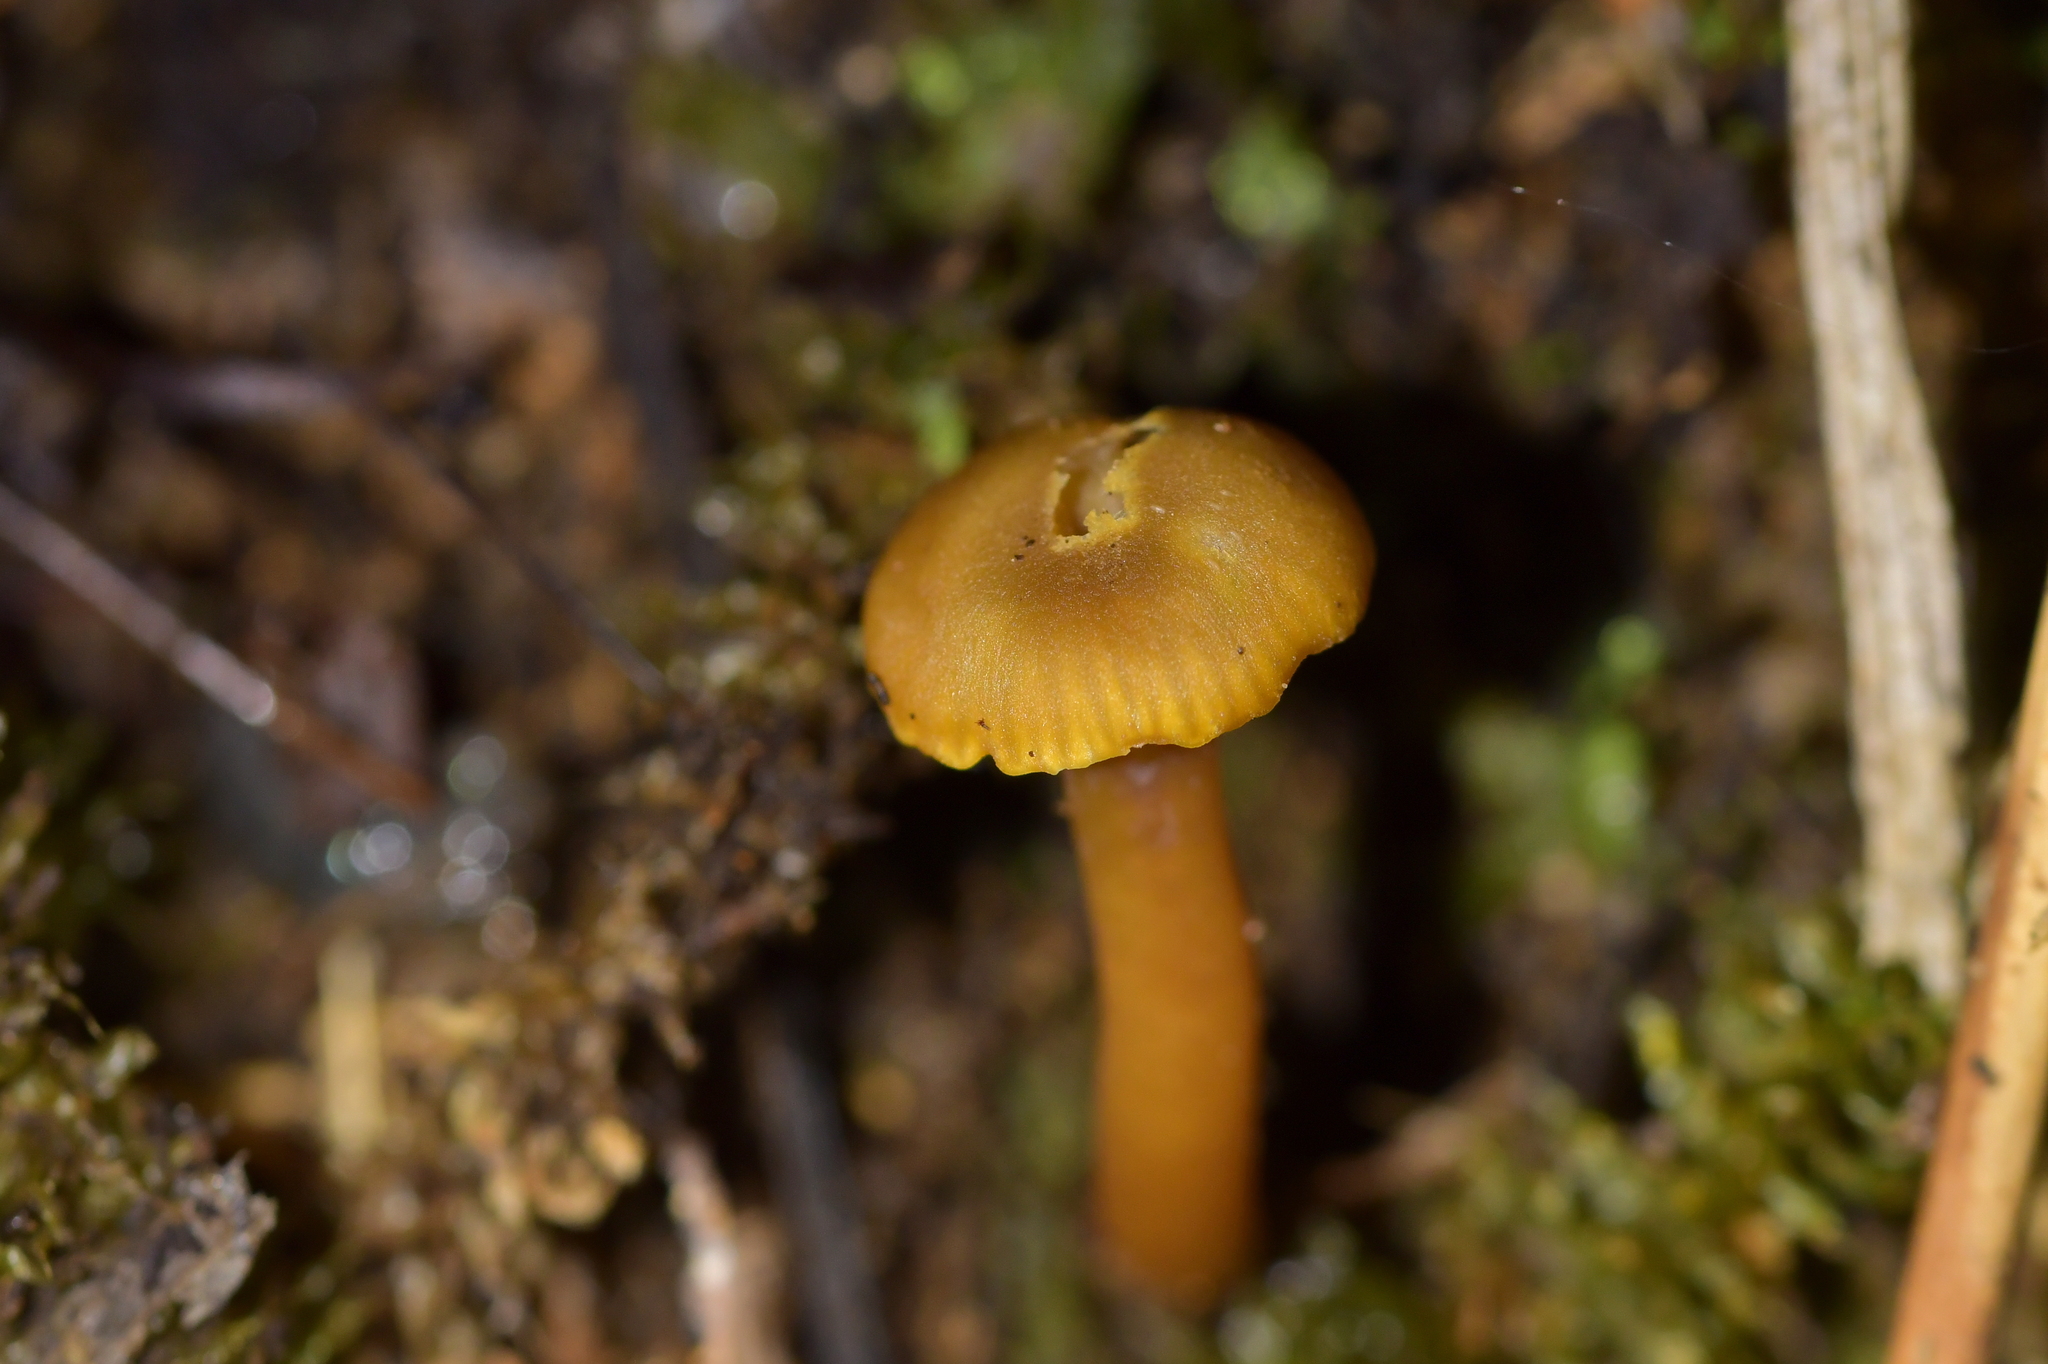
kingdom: Fungi
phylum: Basidiomycota
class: Agaricomycetes
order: Agaricales
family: Hygrophoraceae
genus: Hygrocybe
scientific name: Hygrocybe lilaceolamellata
